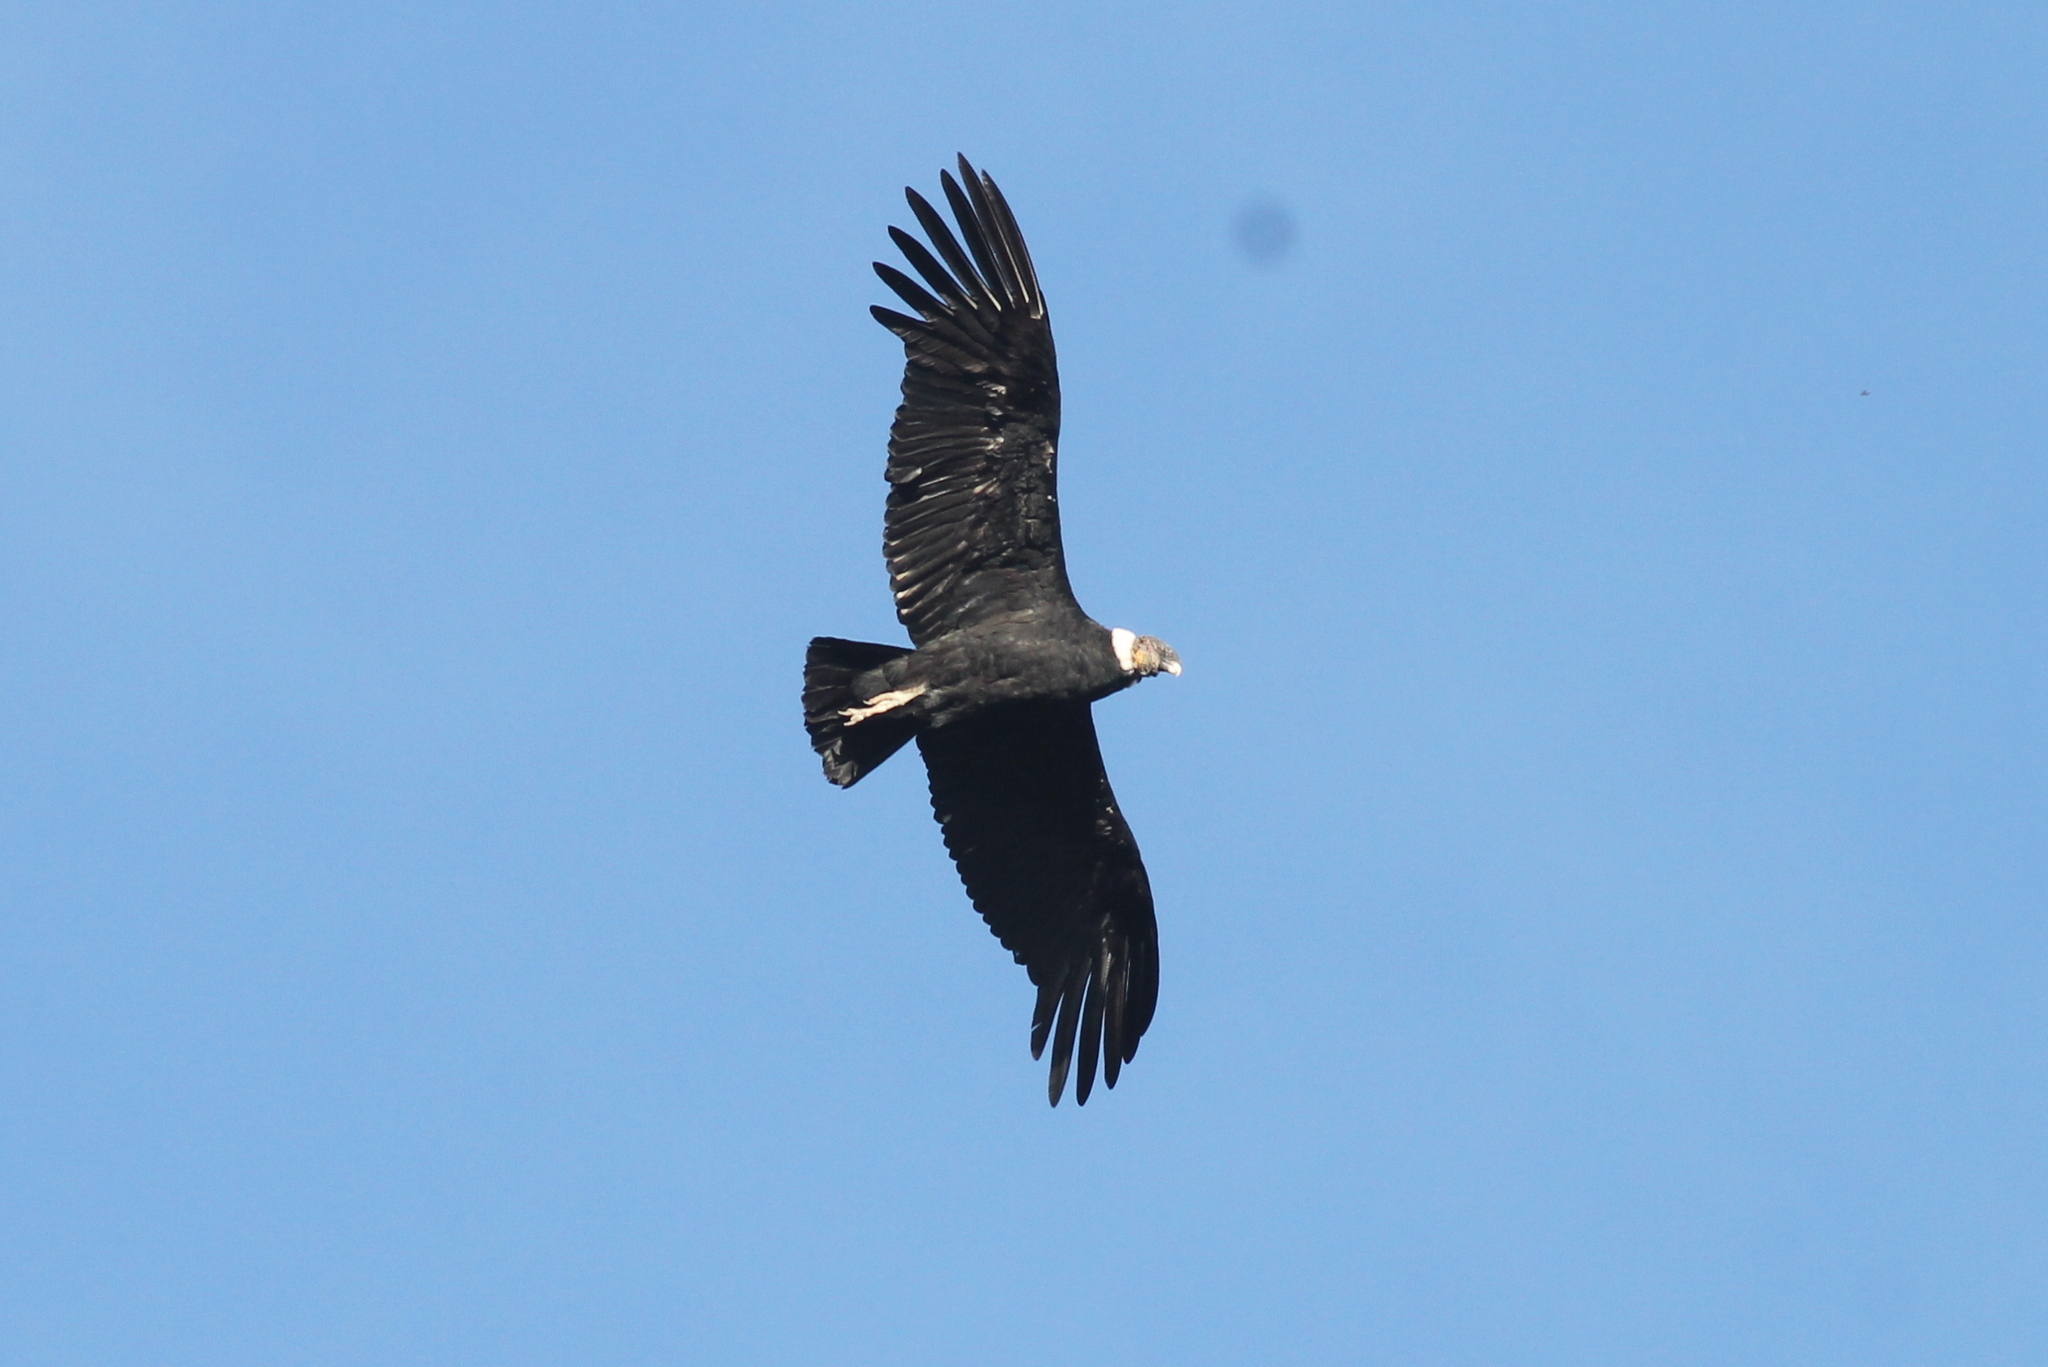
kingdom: Animalia
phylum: Chordata
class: Aves
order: Accipitriformes
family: Cathartidae
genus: Vultur
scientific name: Vultur gryphus
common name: Andean condor
